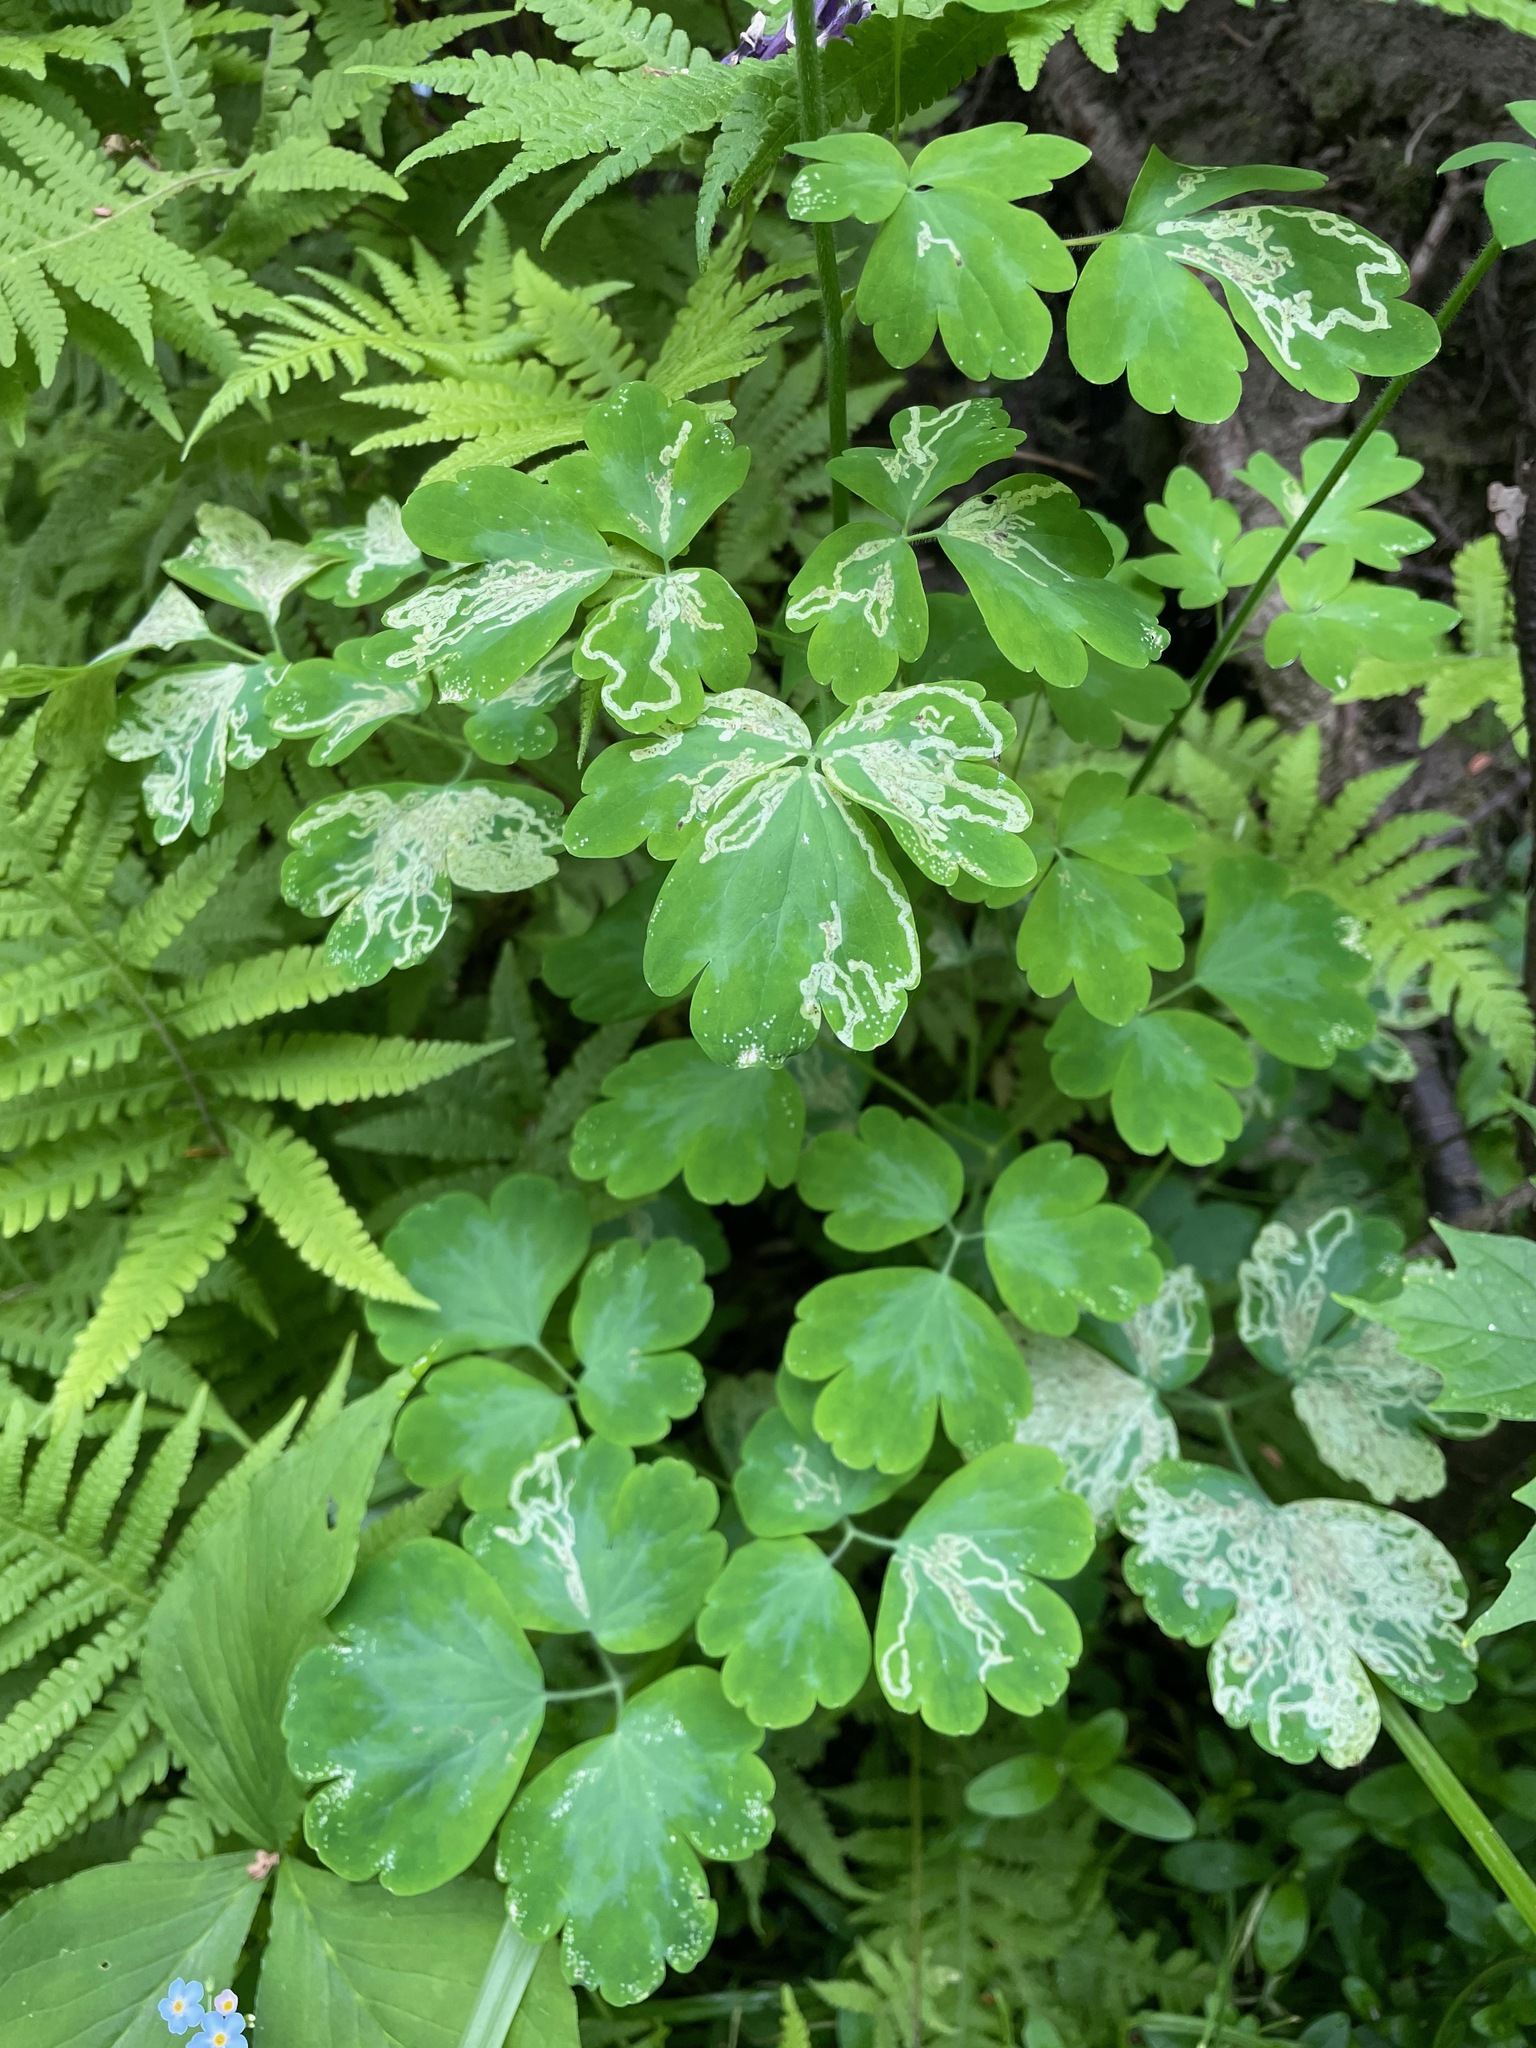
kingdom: Plantae
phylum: Tracheophyta
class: Magnoliopsida
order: Ranunculales
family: Ranunculaceae
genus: Aquilegia
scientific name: Aquilegia vulgaris
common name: Columbine
